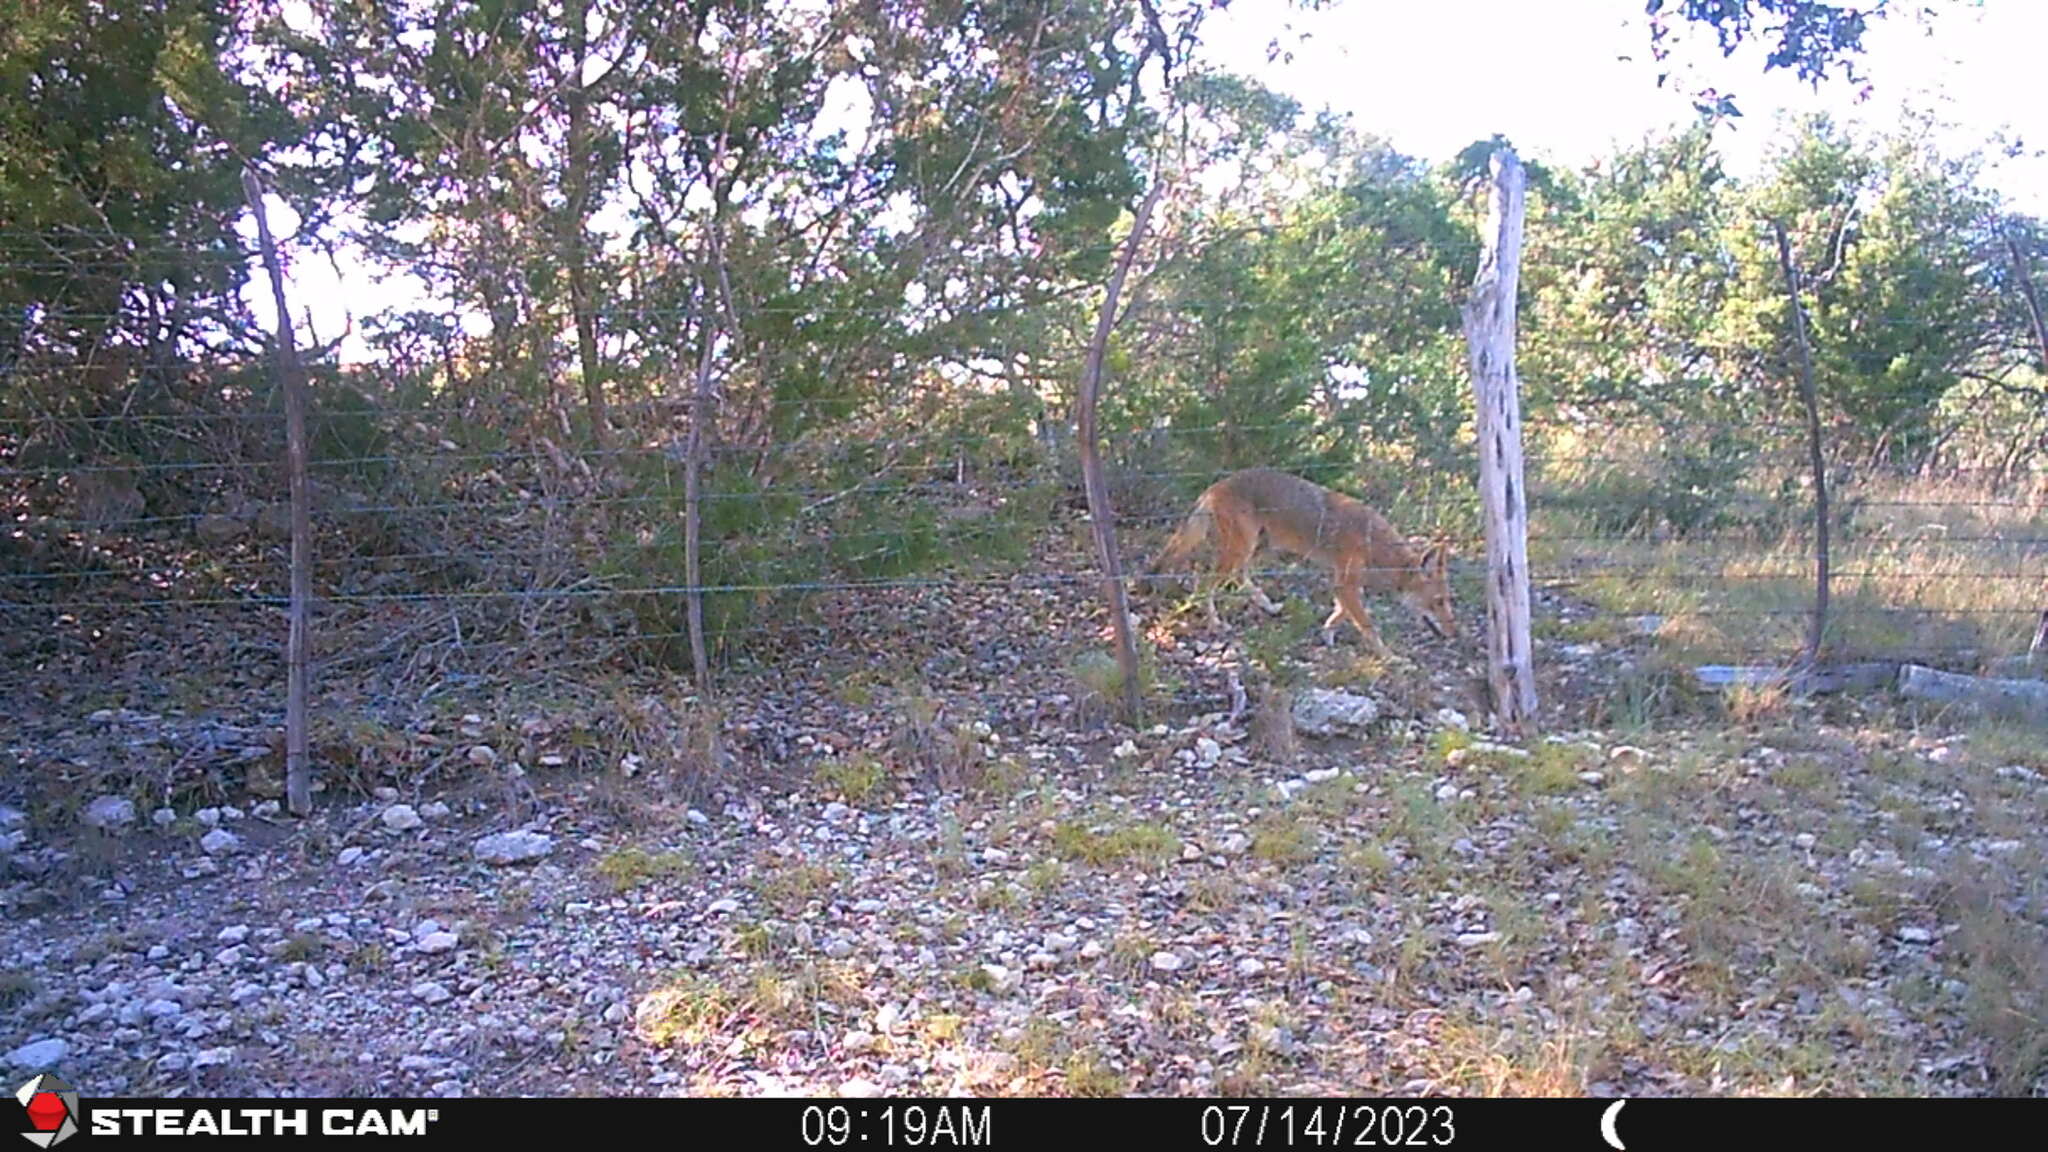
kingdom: Animalia
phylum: Chordata
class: Mammalia
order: Carnivora
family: Canidae
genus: Canis
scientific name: Canis latrans
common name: Coyote
